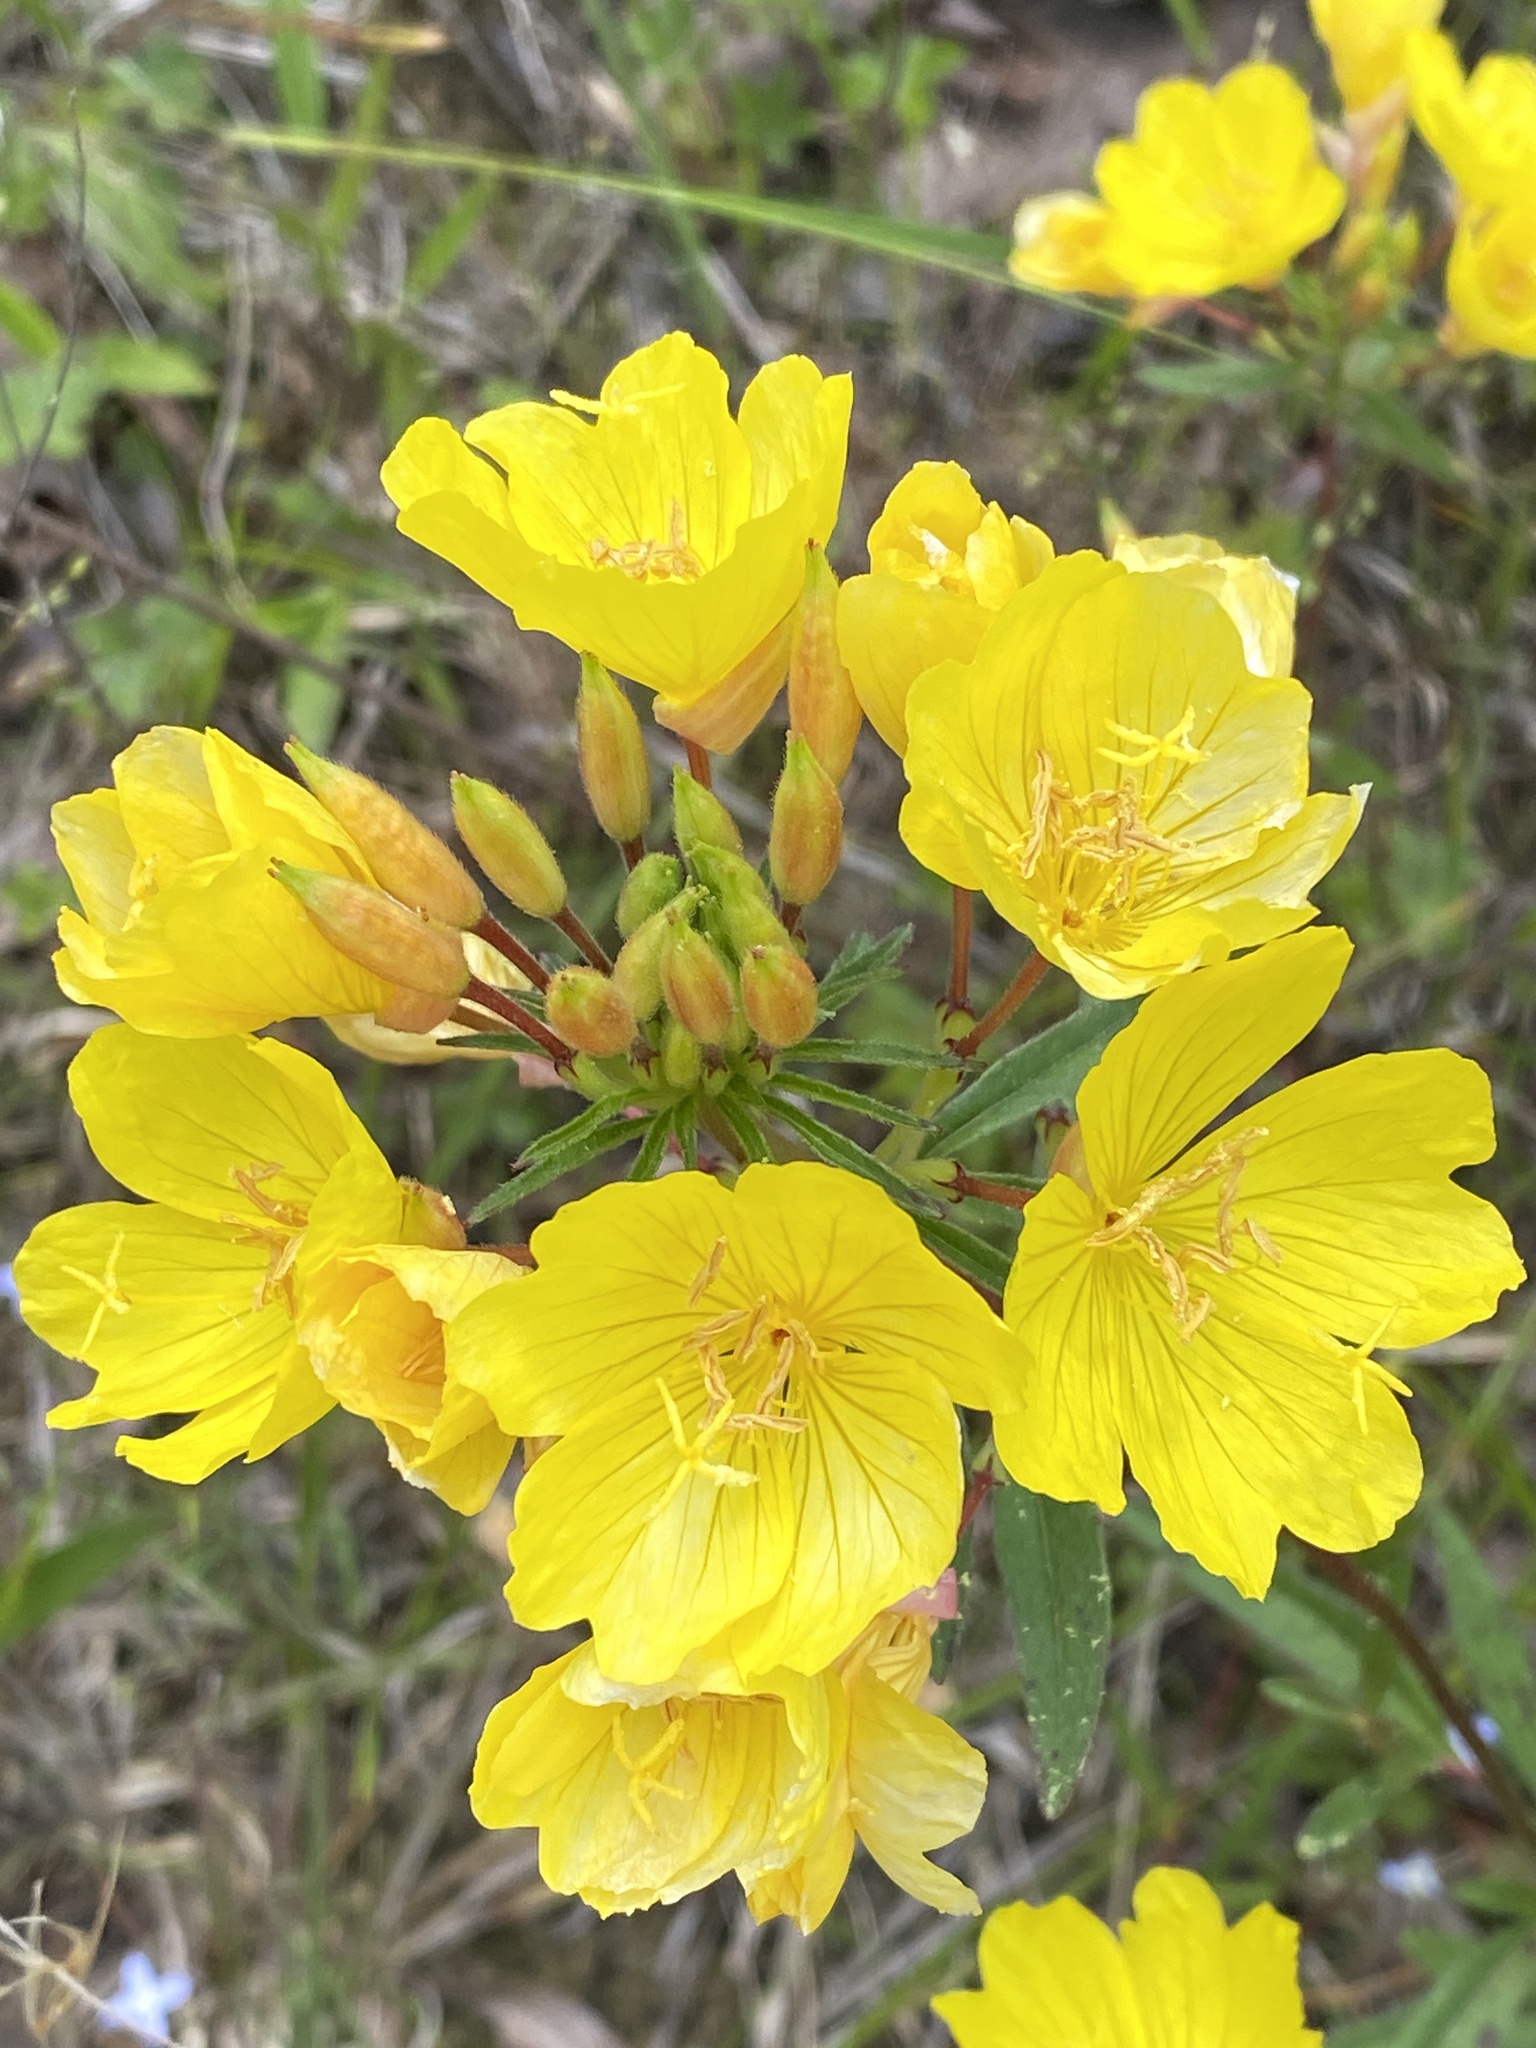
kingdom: Plantae
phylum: Tracheophyta
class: Magnoliopsida
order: Myrtales
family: Onagraceae
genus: Oenothera
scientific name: Oenothera fruticosa
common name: Southern sundrops
